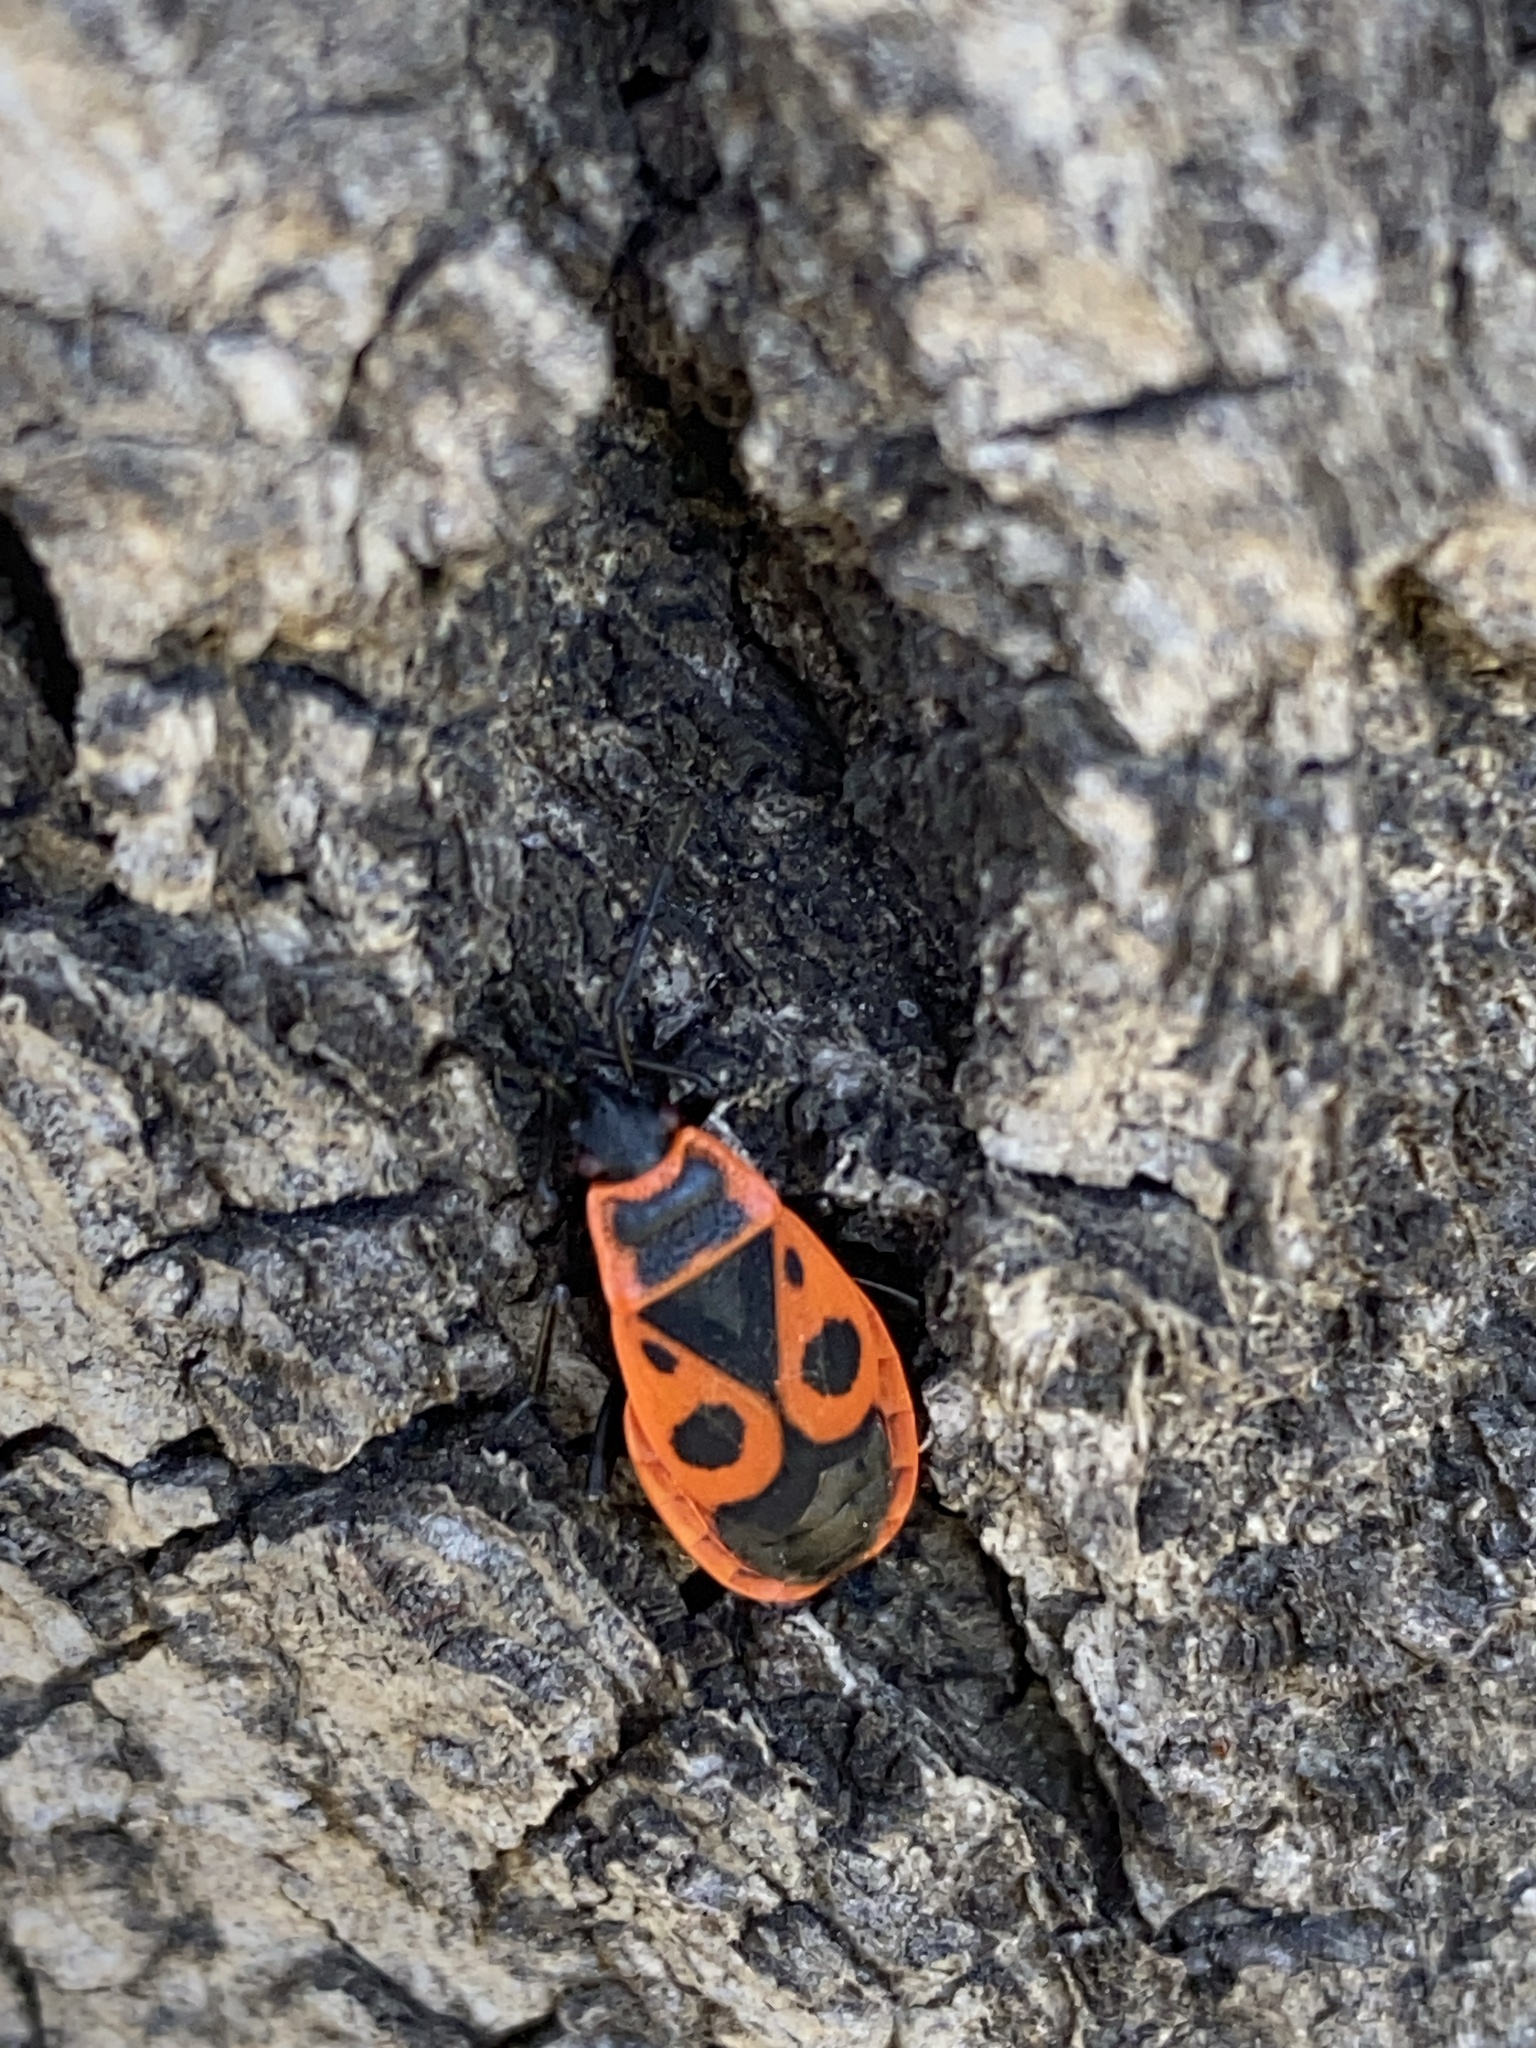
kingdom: Animalia
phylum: Arthropoda
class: Insecta
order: Hemiptera
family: Pyrrhocoridae
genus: Pyrrhocoris
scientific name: Pyrrhocoris apterus
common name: Firebug
